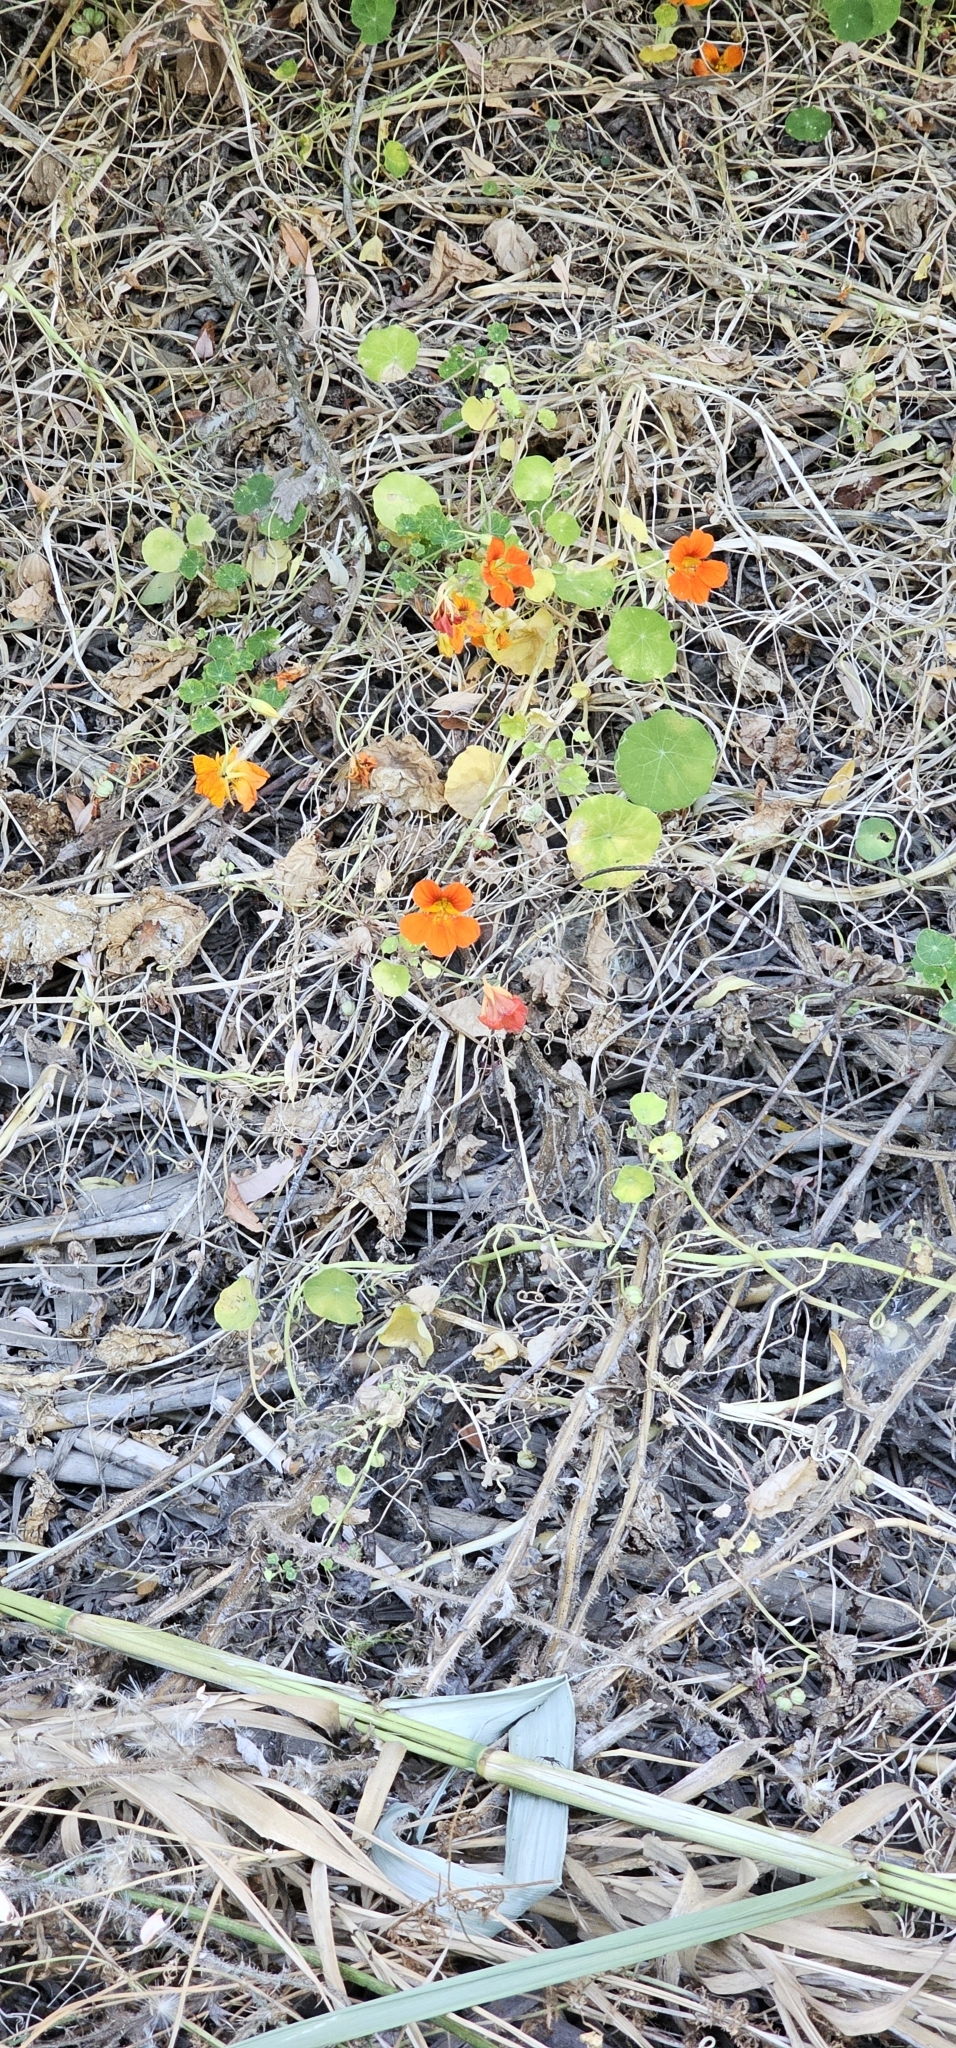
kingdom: Plantae
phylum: Tracheophyta
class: Magnoliopsida
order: Brassicales
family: Tropaeolaceae
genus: Tropaeolum
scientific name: Tropaeolum majus
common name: Nasturtium
